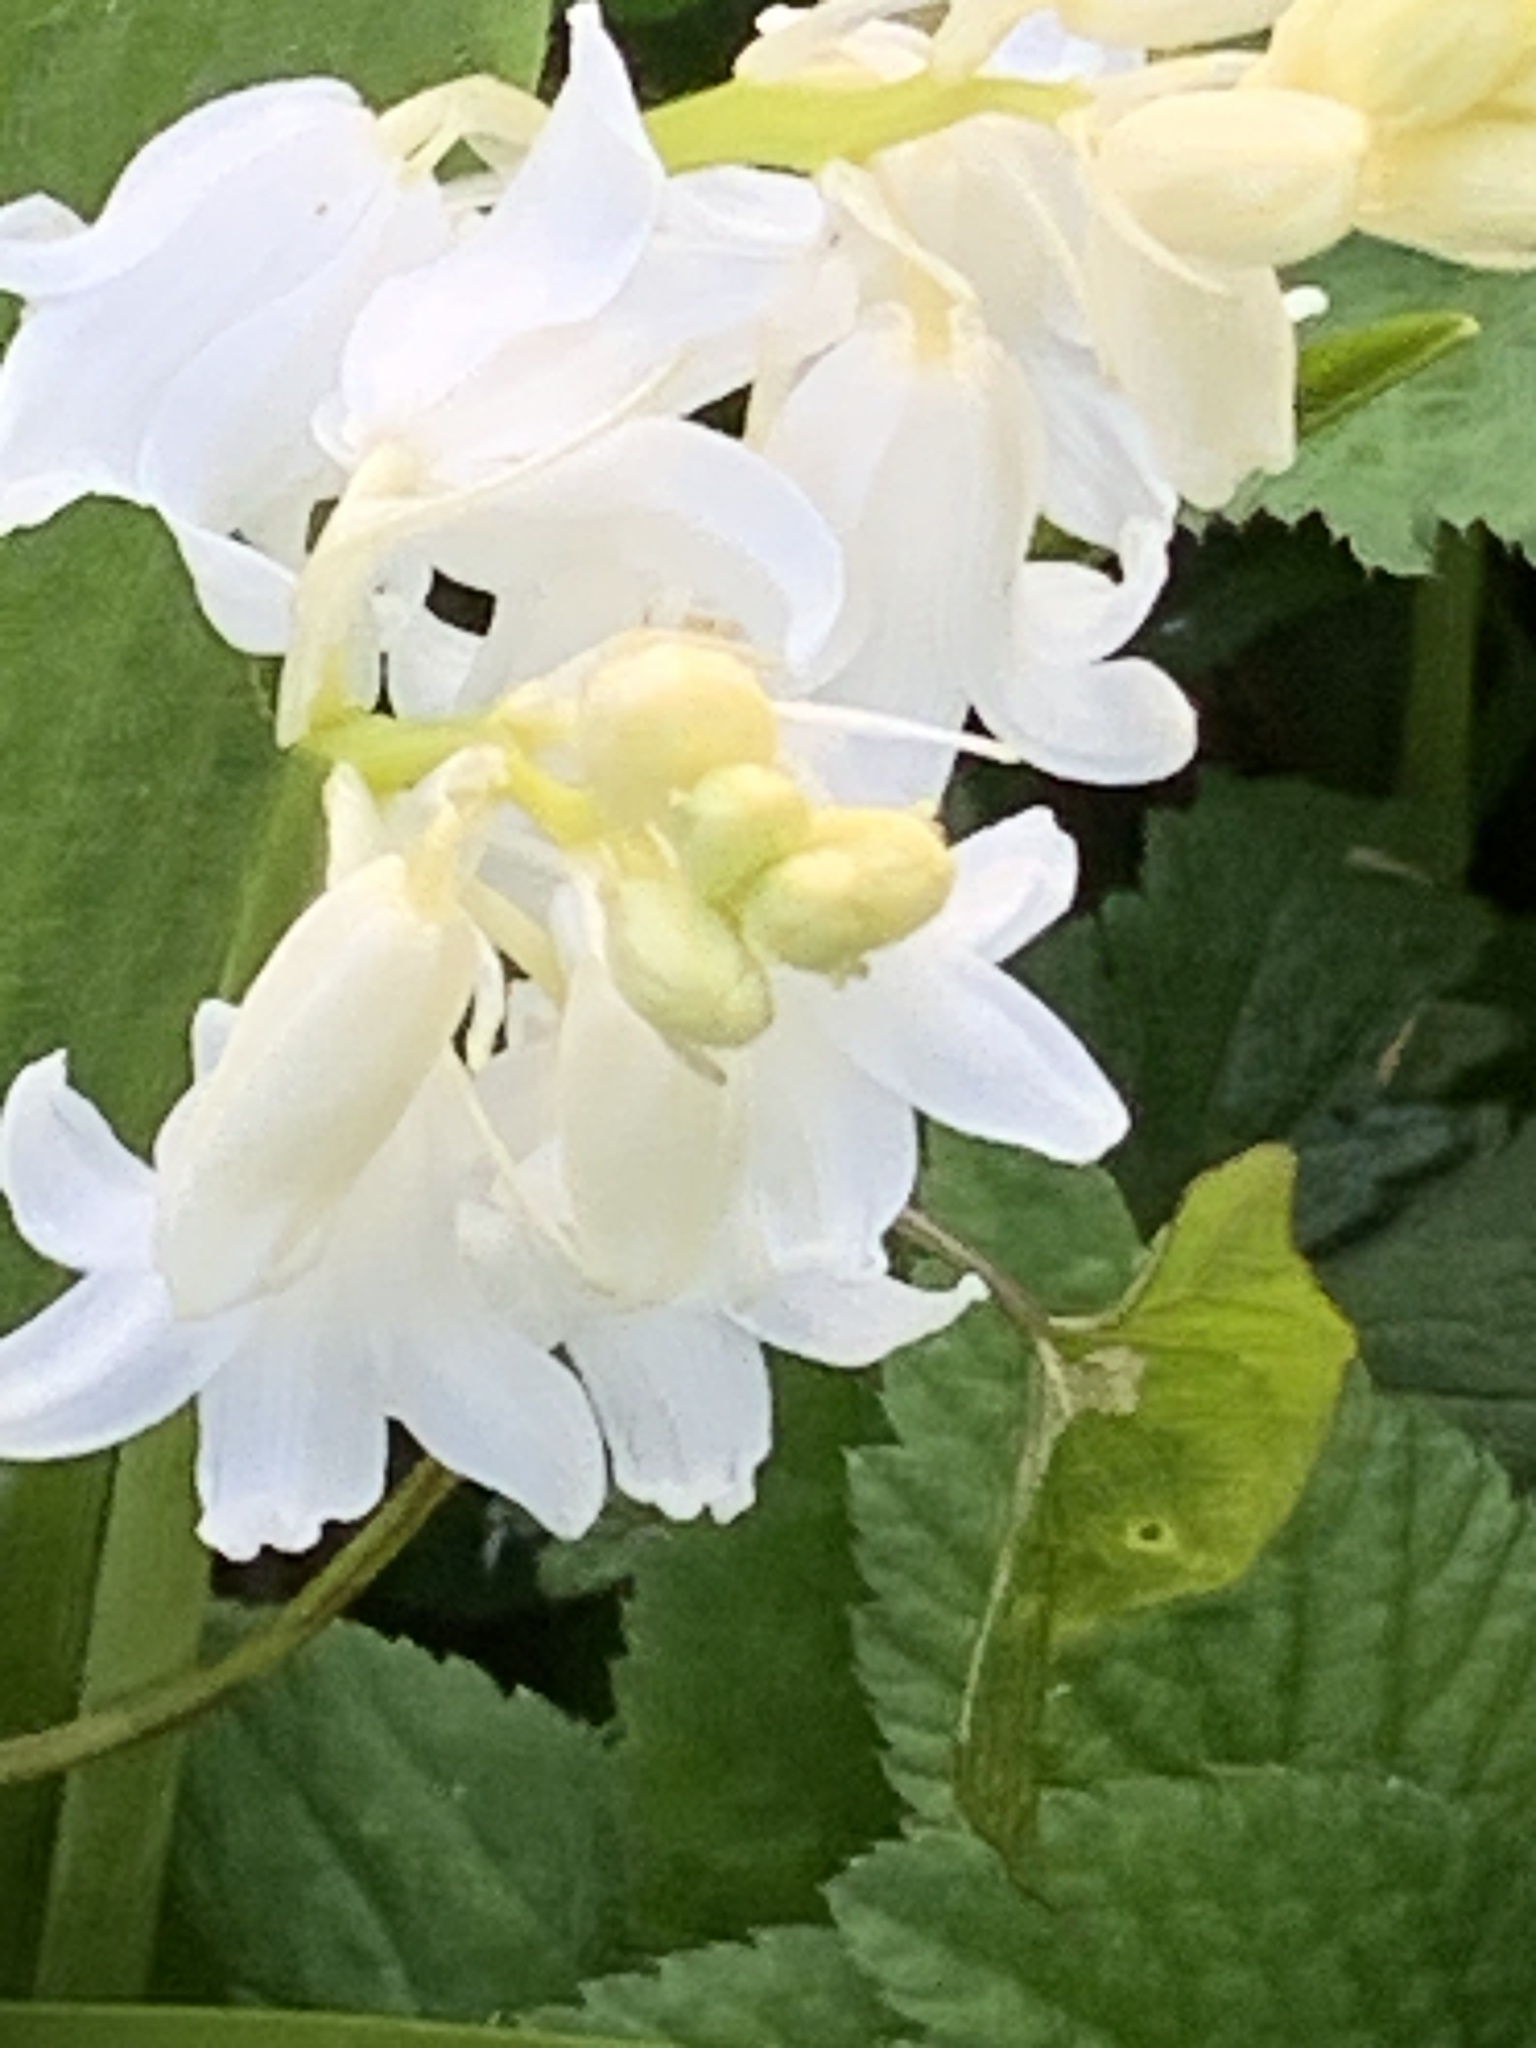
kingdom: Plantae
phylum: Tracheophyta
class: Liliopsida
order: Asparagales
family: Asparagaceae
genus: Hyacinthoides
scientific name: Hyacinthoides massartiana
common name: Hyacinthoides
